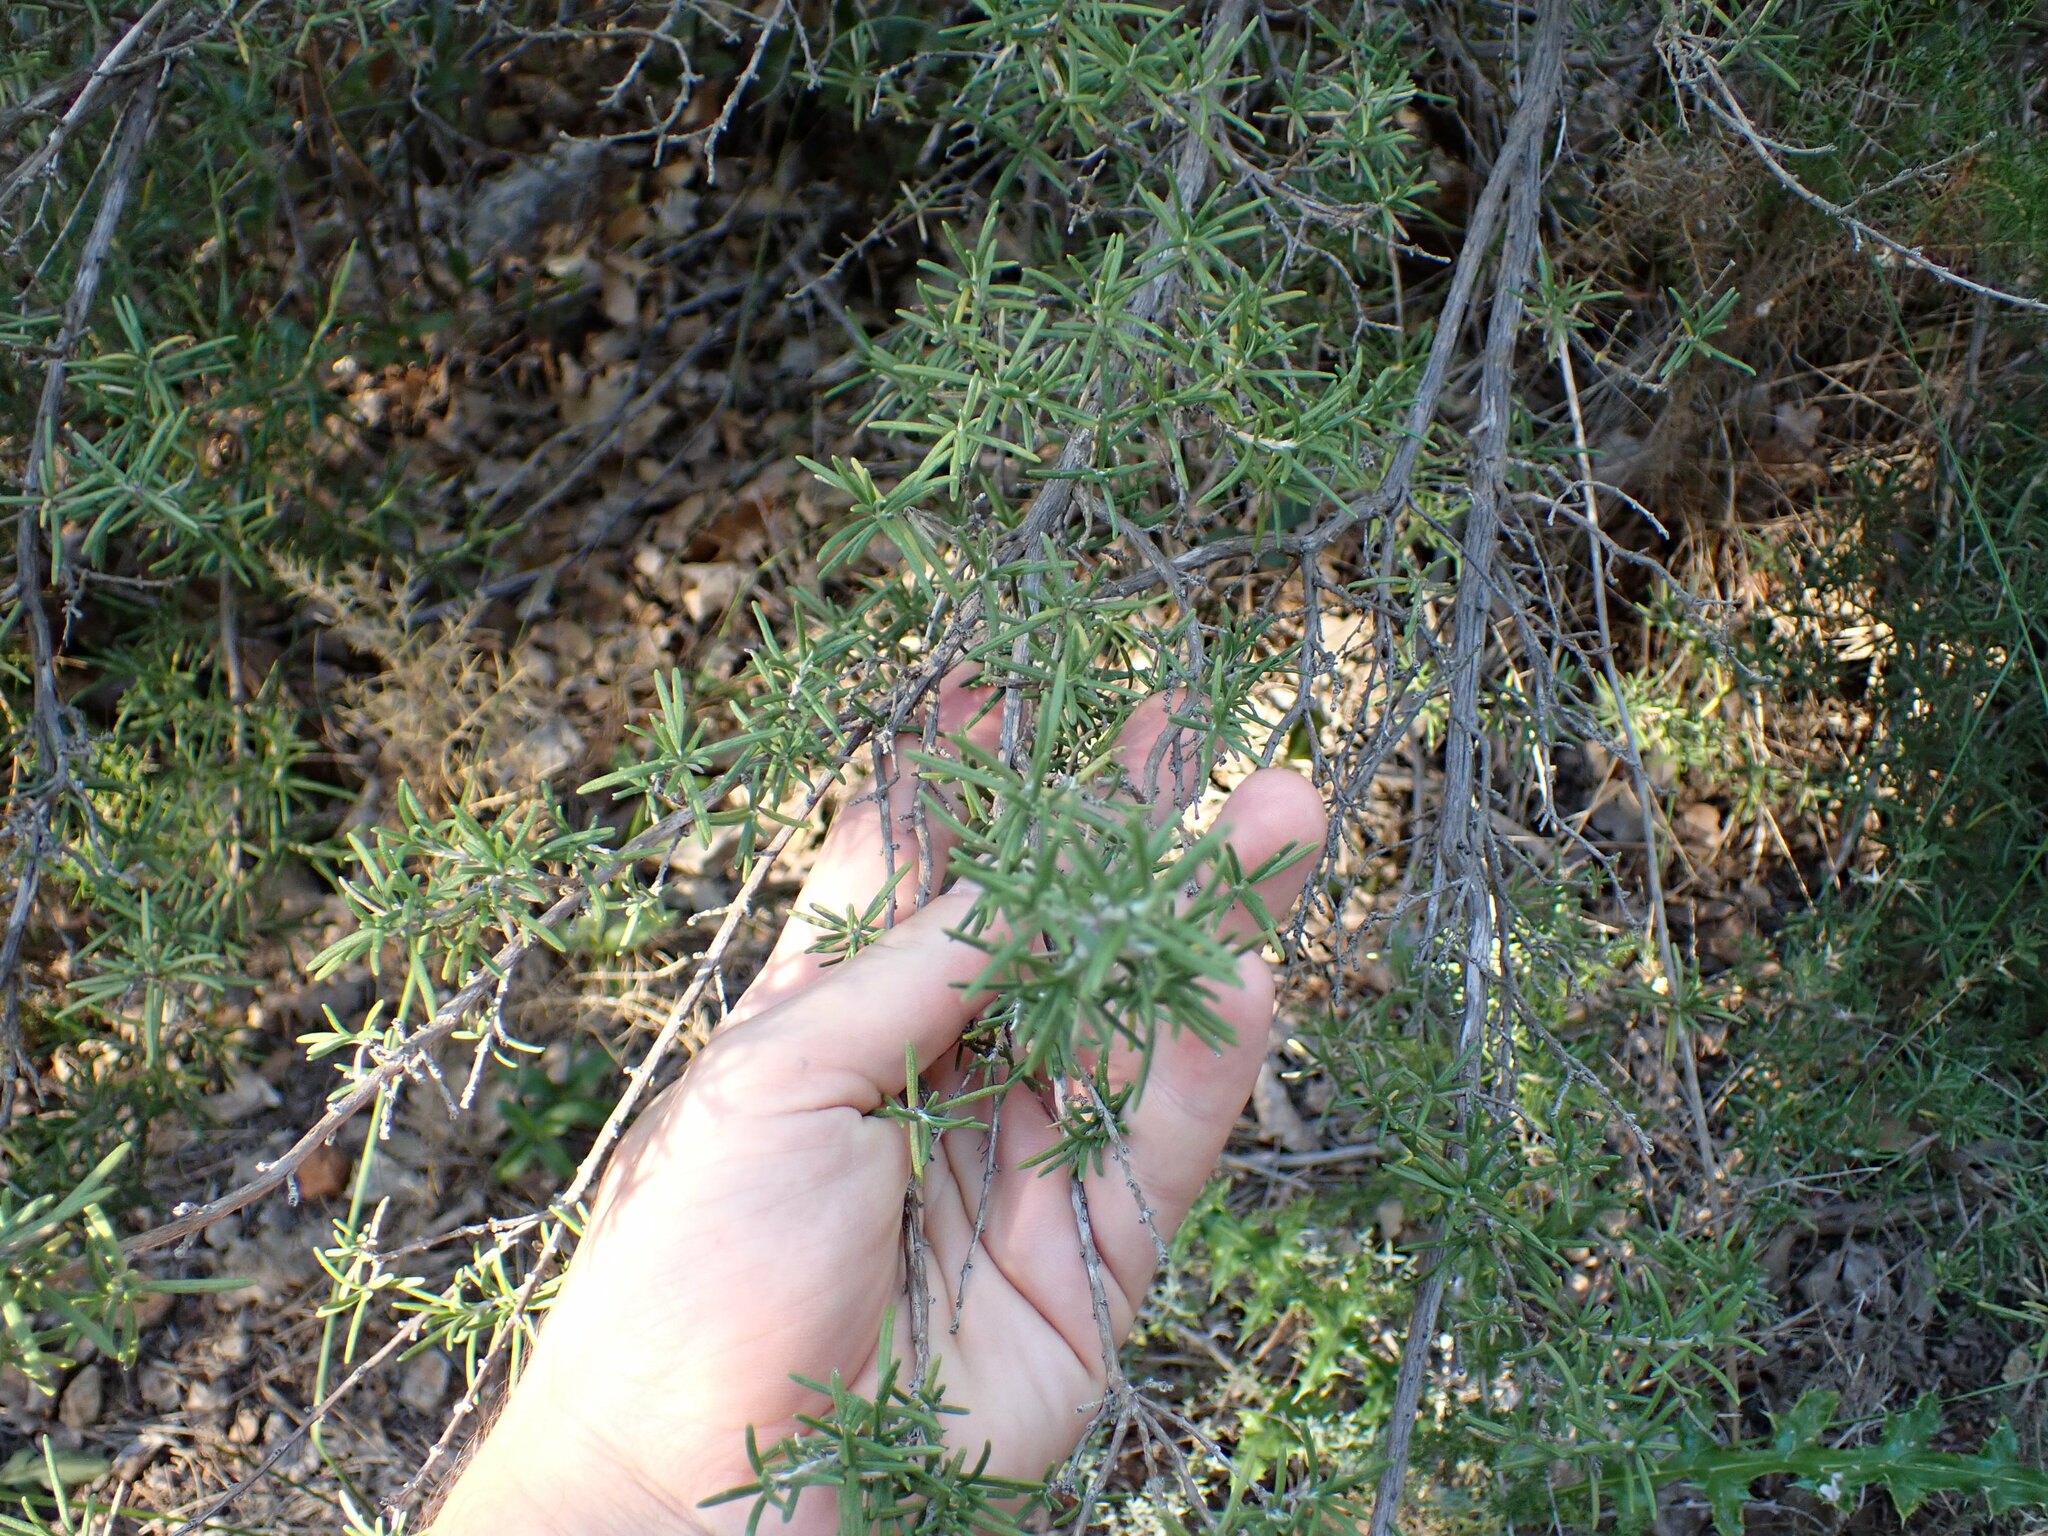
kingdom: Plantae
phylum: Tracheophyta
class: Magnoliopsida
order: Lamiales
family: Lamiaceae
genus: Salvia
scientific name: Salvia rosmarinus
